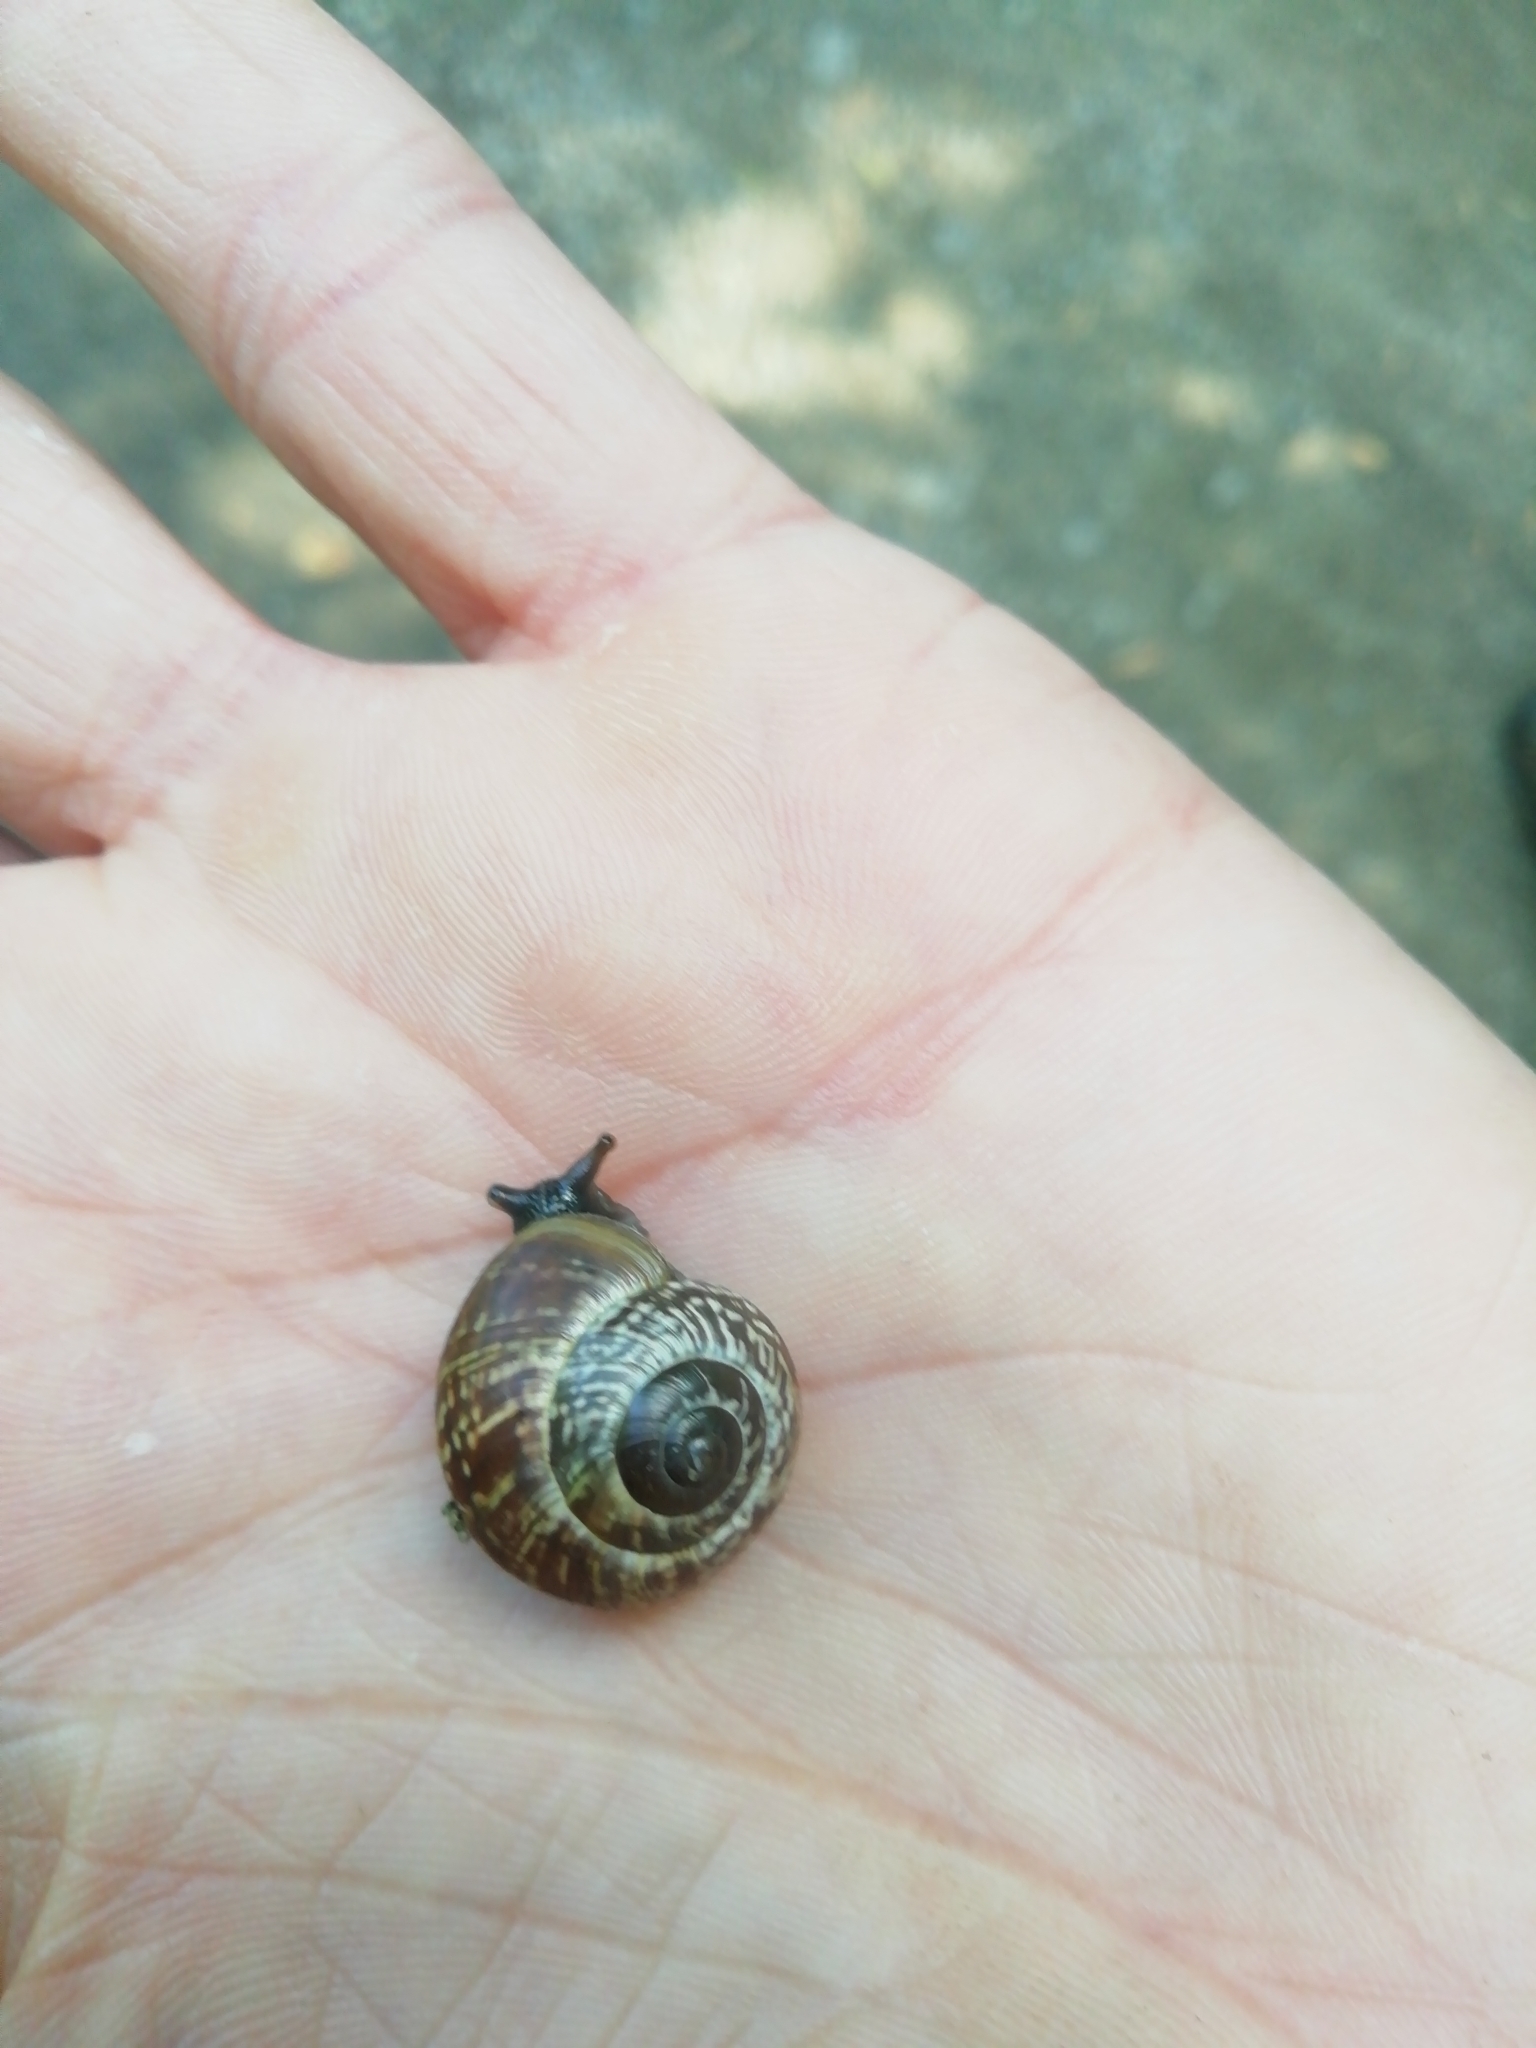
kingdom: Animalia
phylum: Mollusca
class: Gastropoda
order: Stylommatophora
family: Helicidae
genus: Arianta
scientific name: Arianta arbustorum
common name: Copse snail
